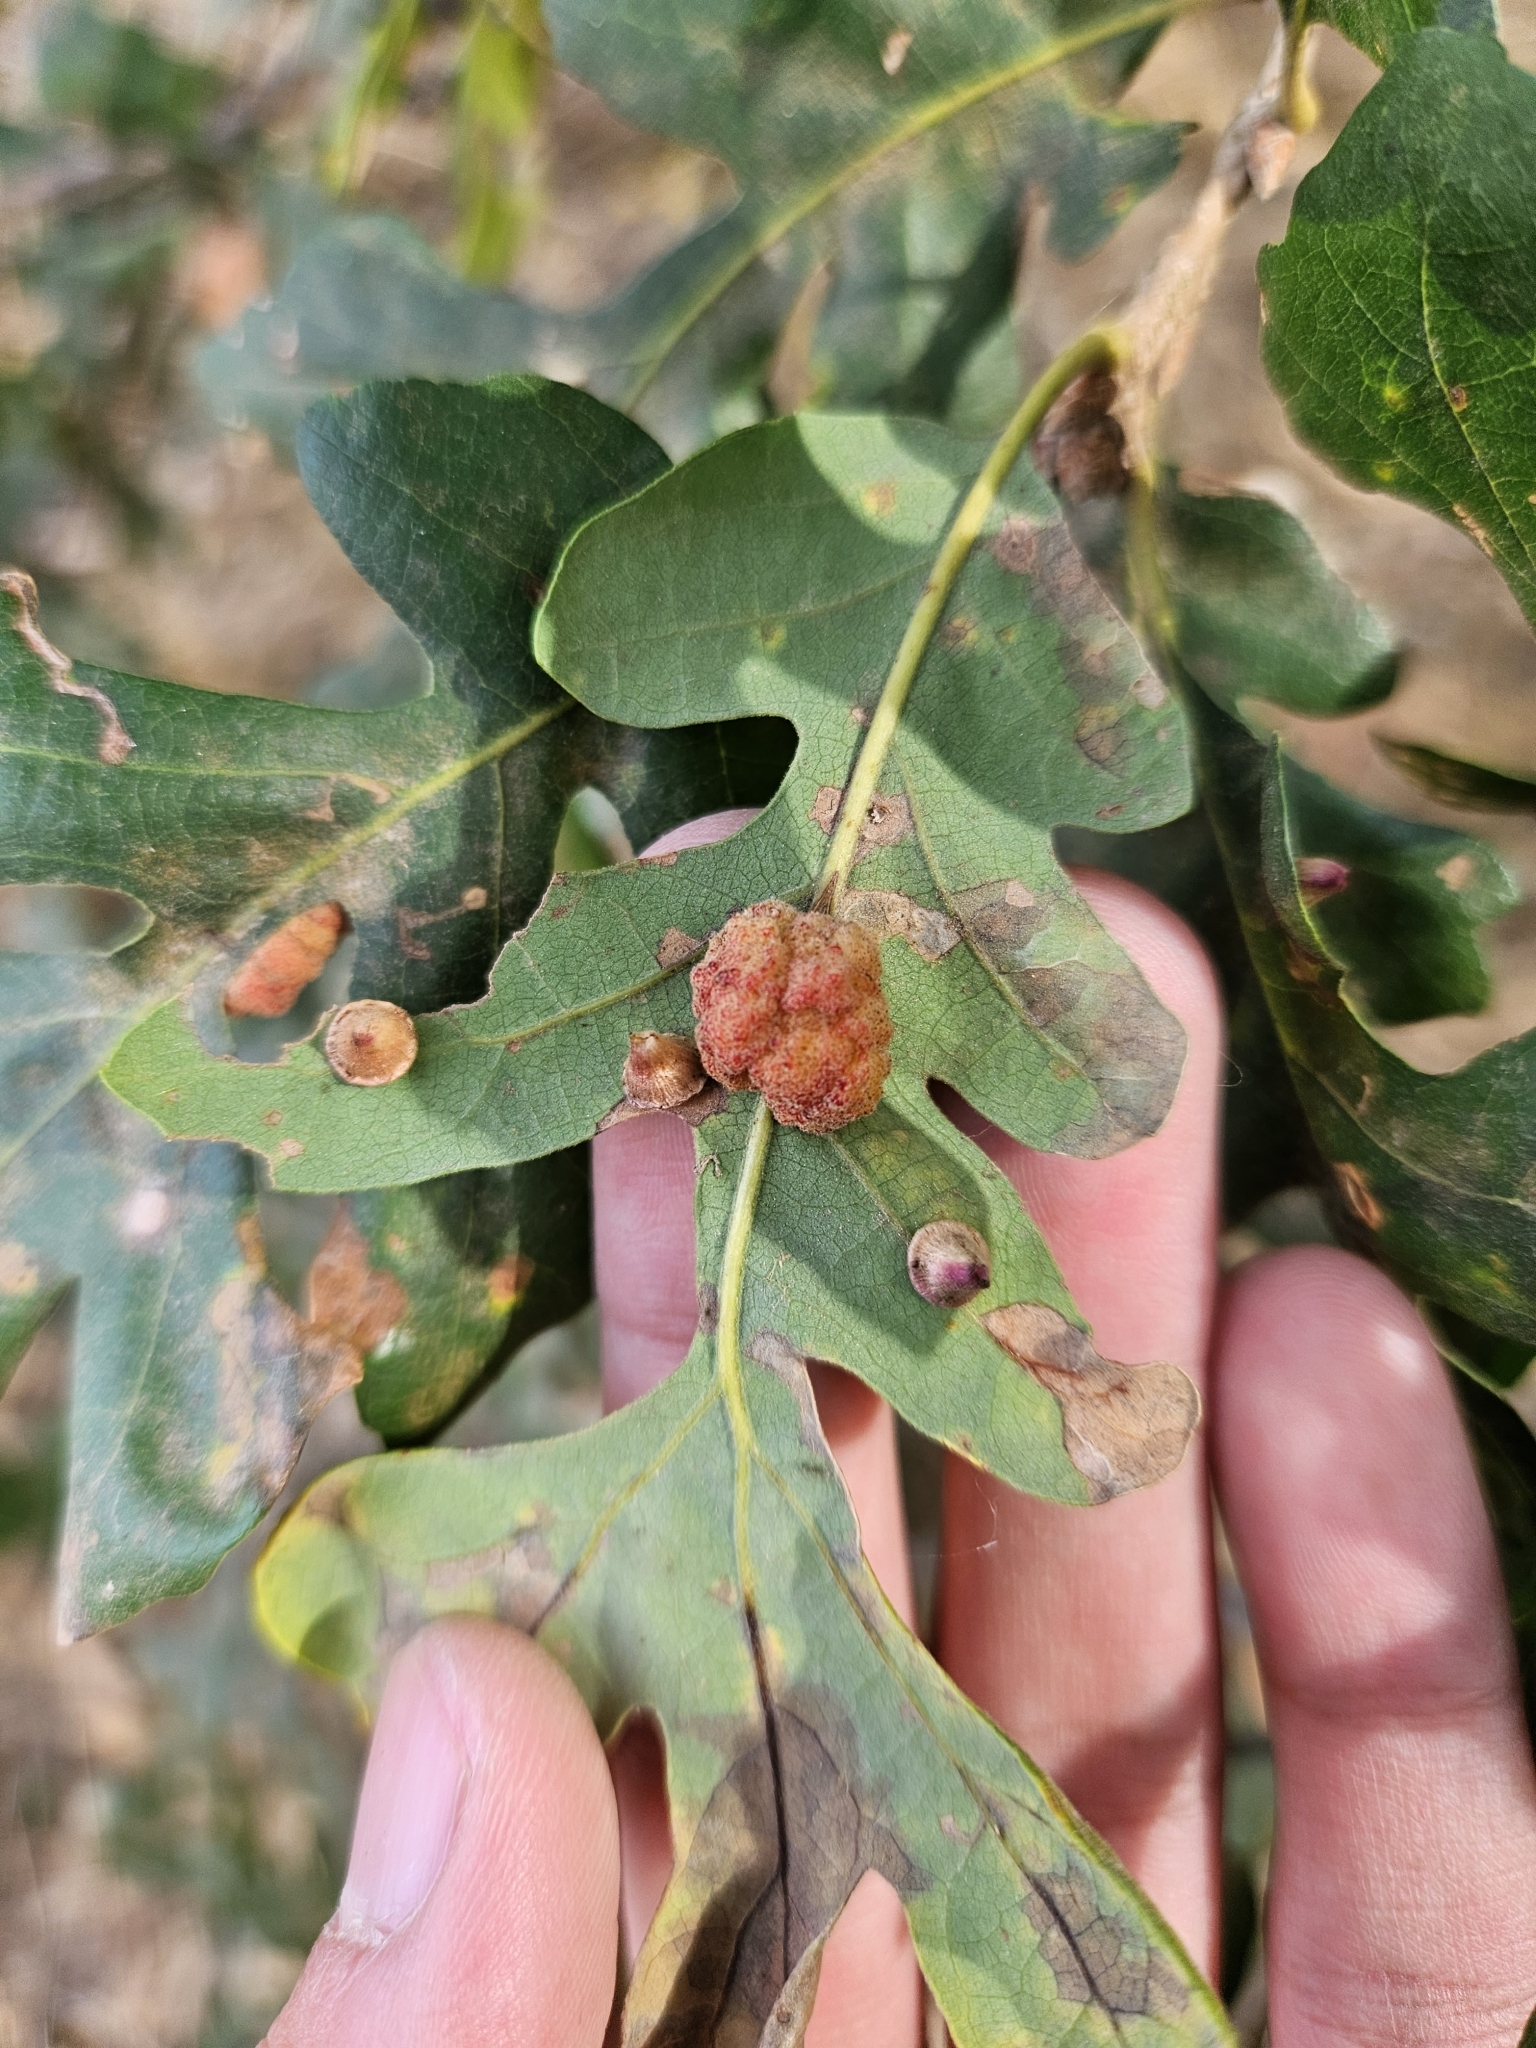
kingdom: Animalia
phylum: Arthropoda
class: Insecta
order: Hymenoptera
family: Cynipidae
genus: Andricus
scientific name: Andricus
